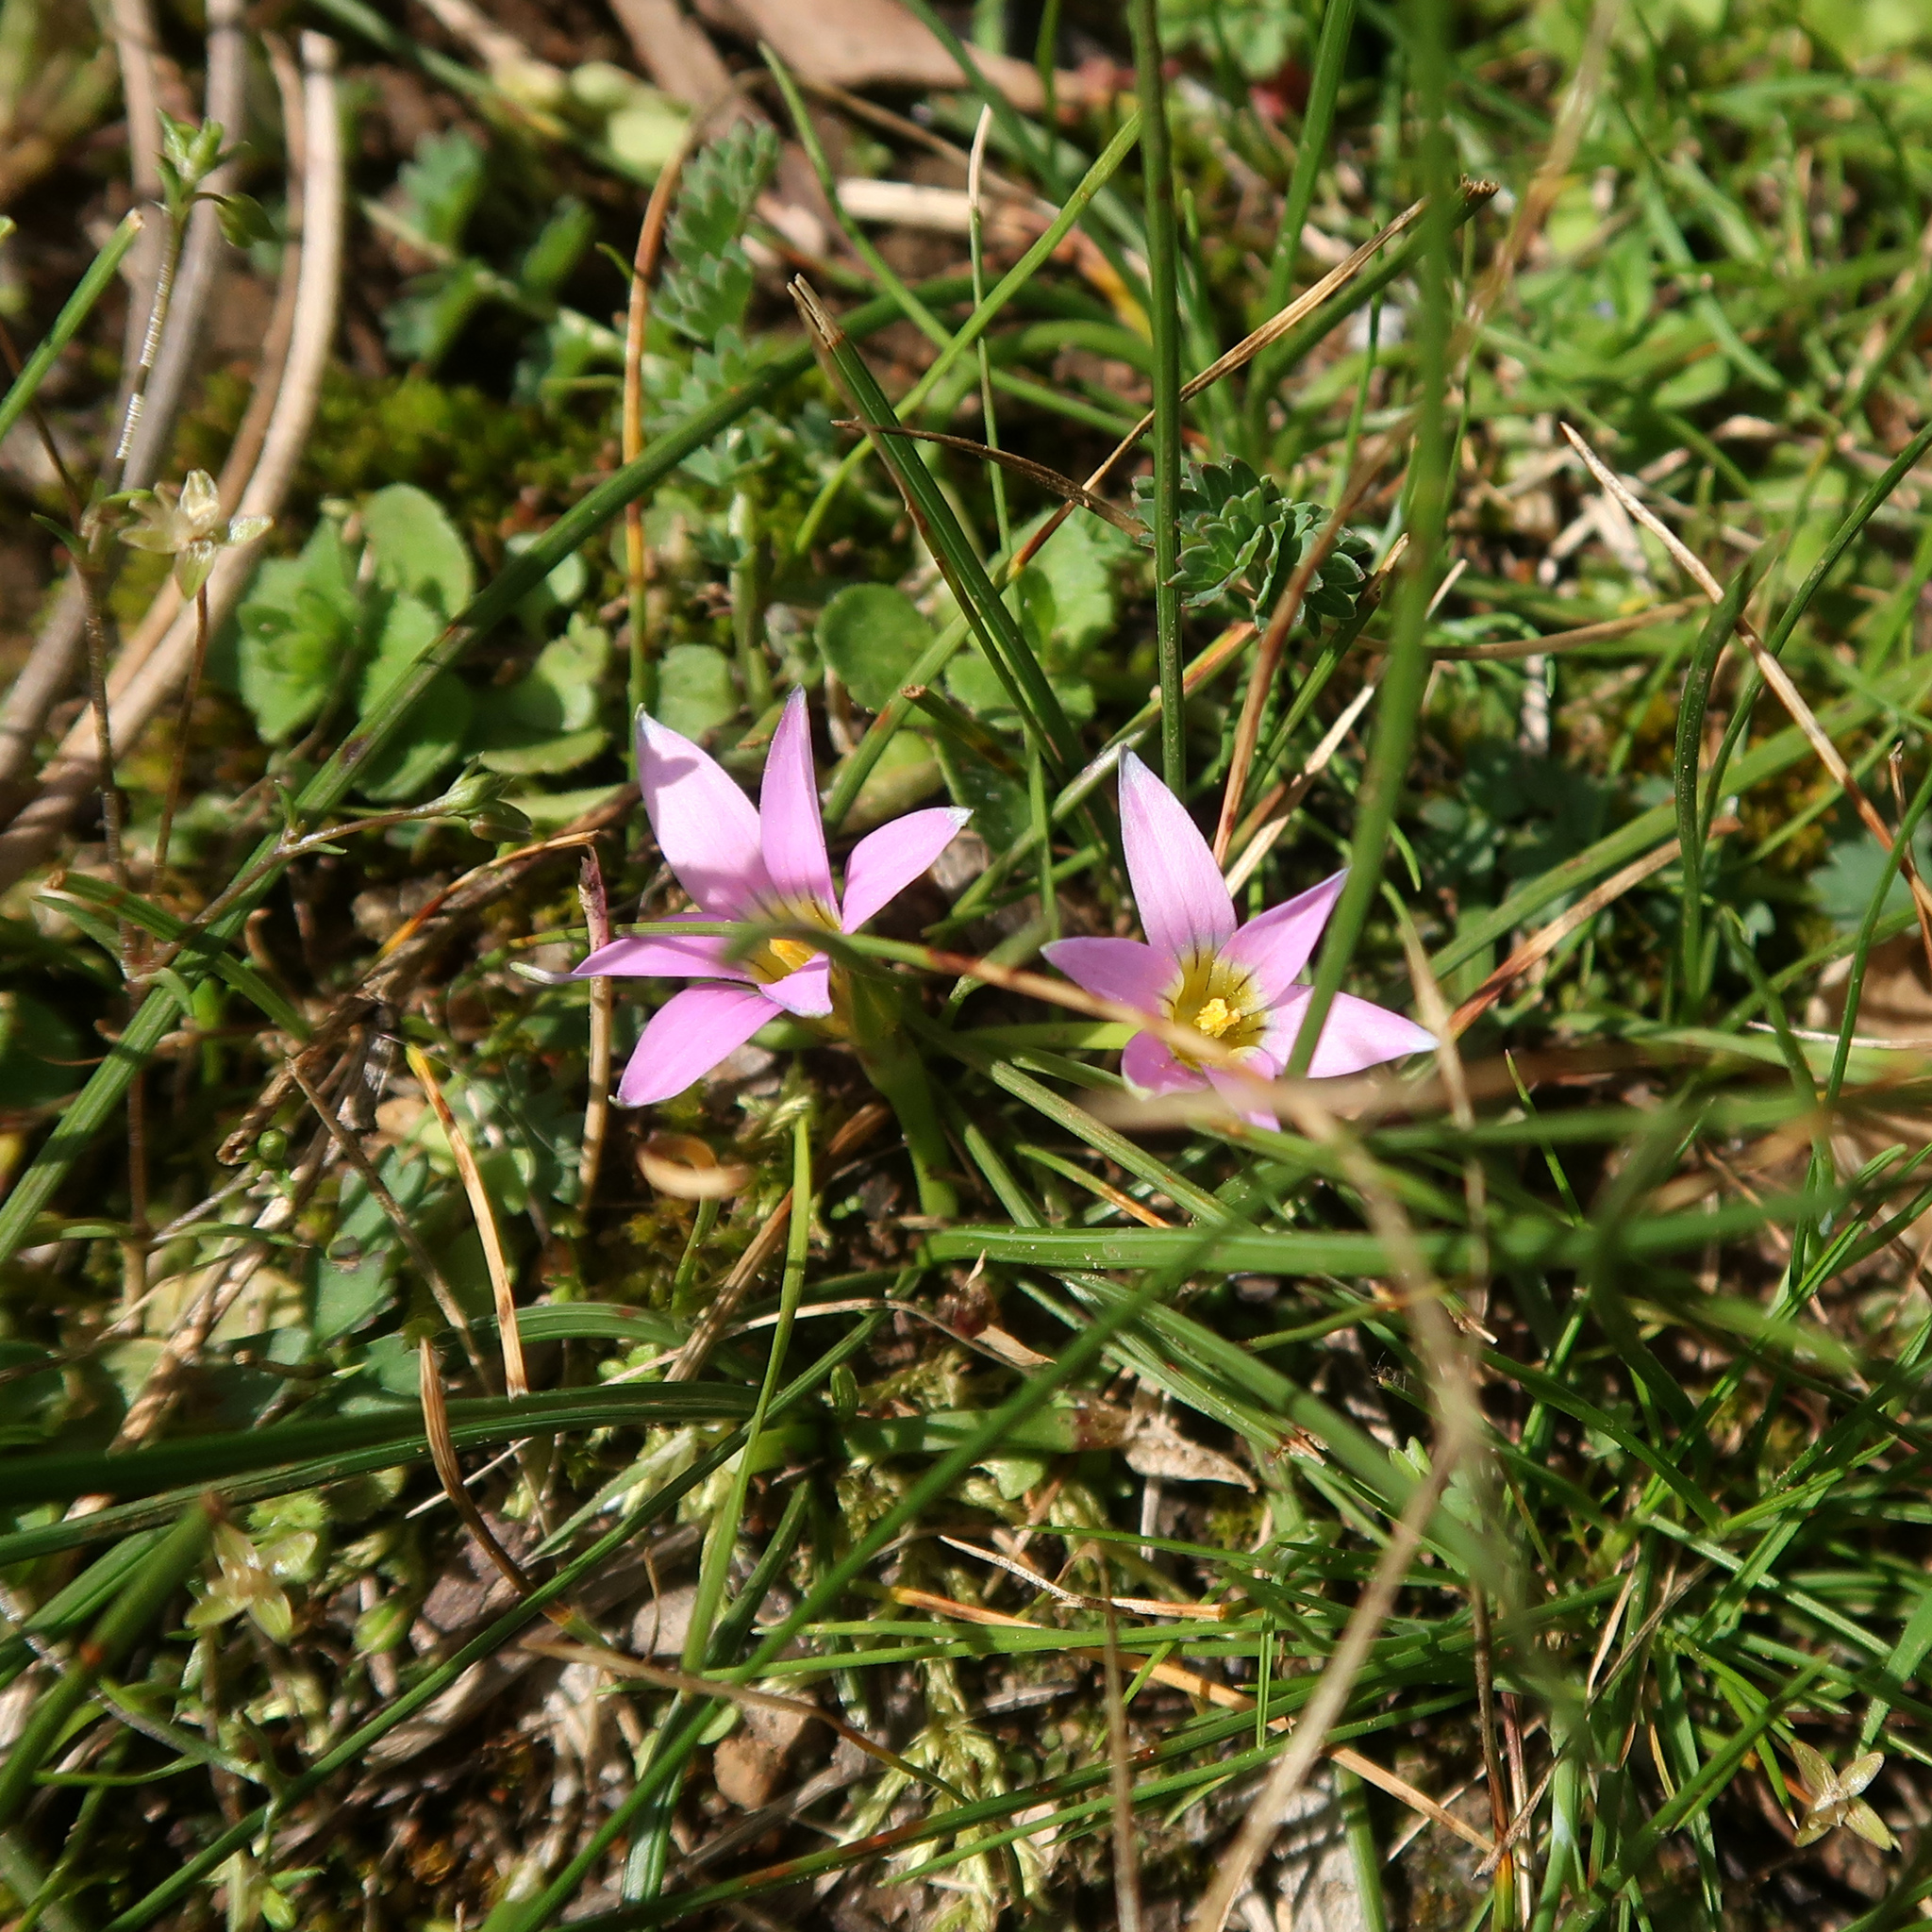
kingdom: Plantae
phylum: Tracheophyta
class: Liliopsida
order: Asparagales
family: Iridaceae
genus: Romulea
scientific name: Romulea rosea
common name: Oniongrass
